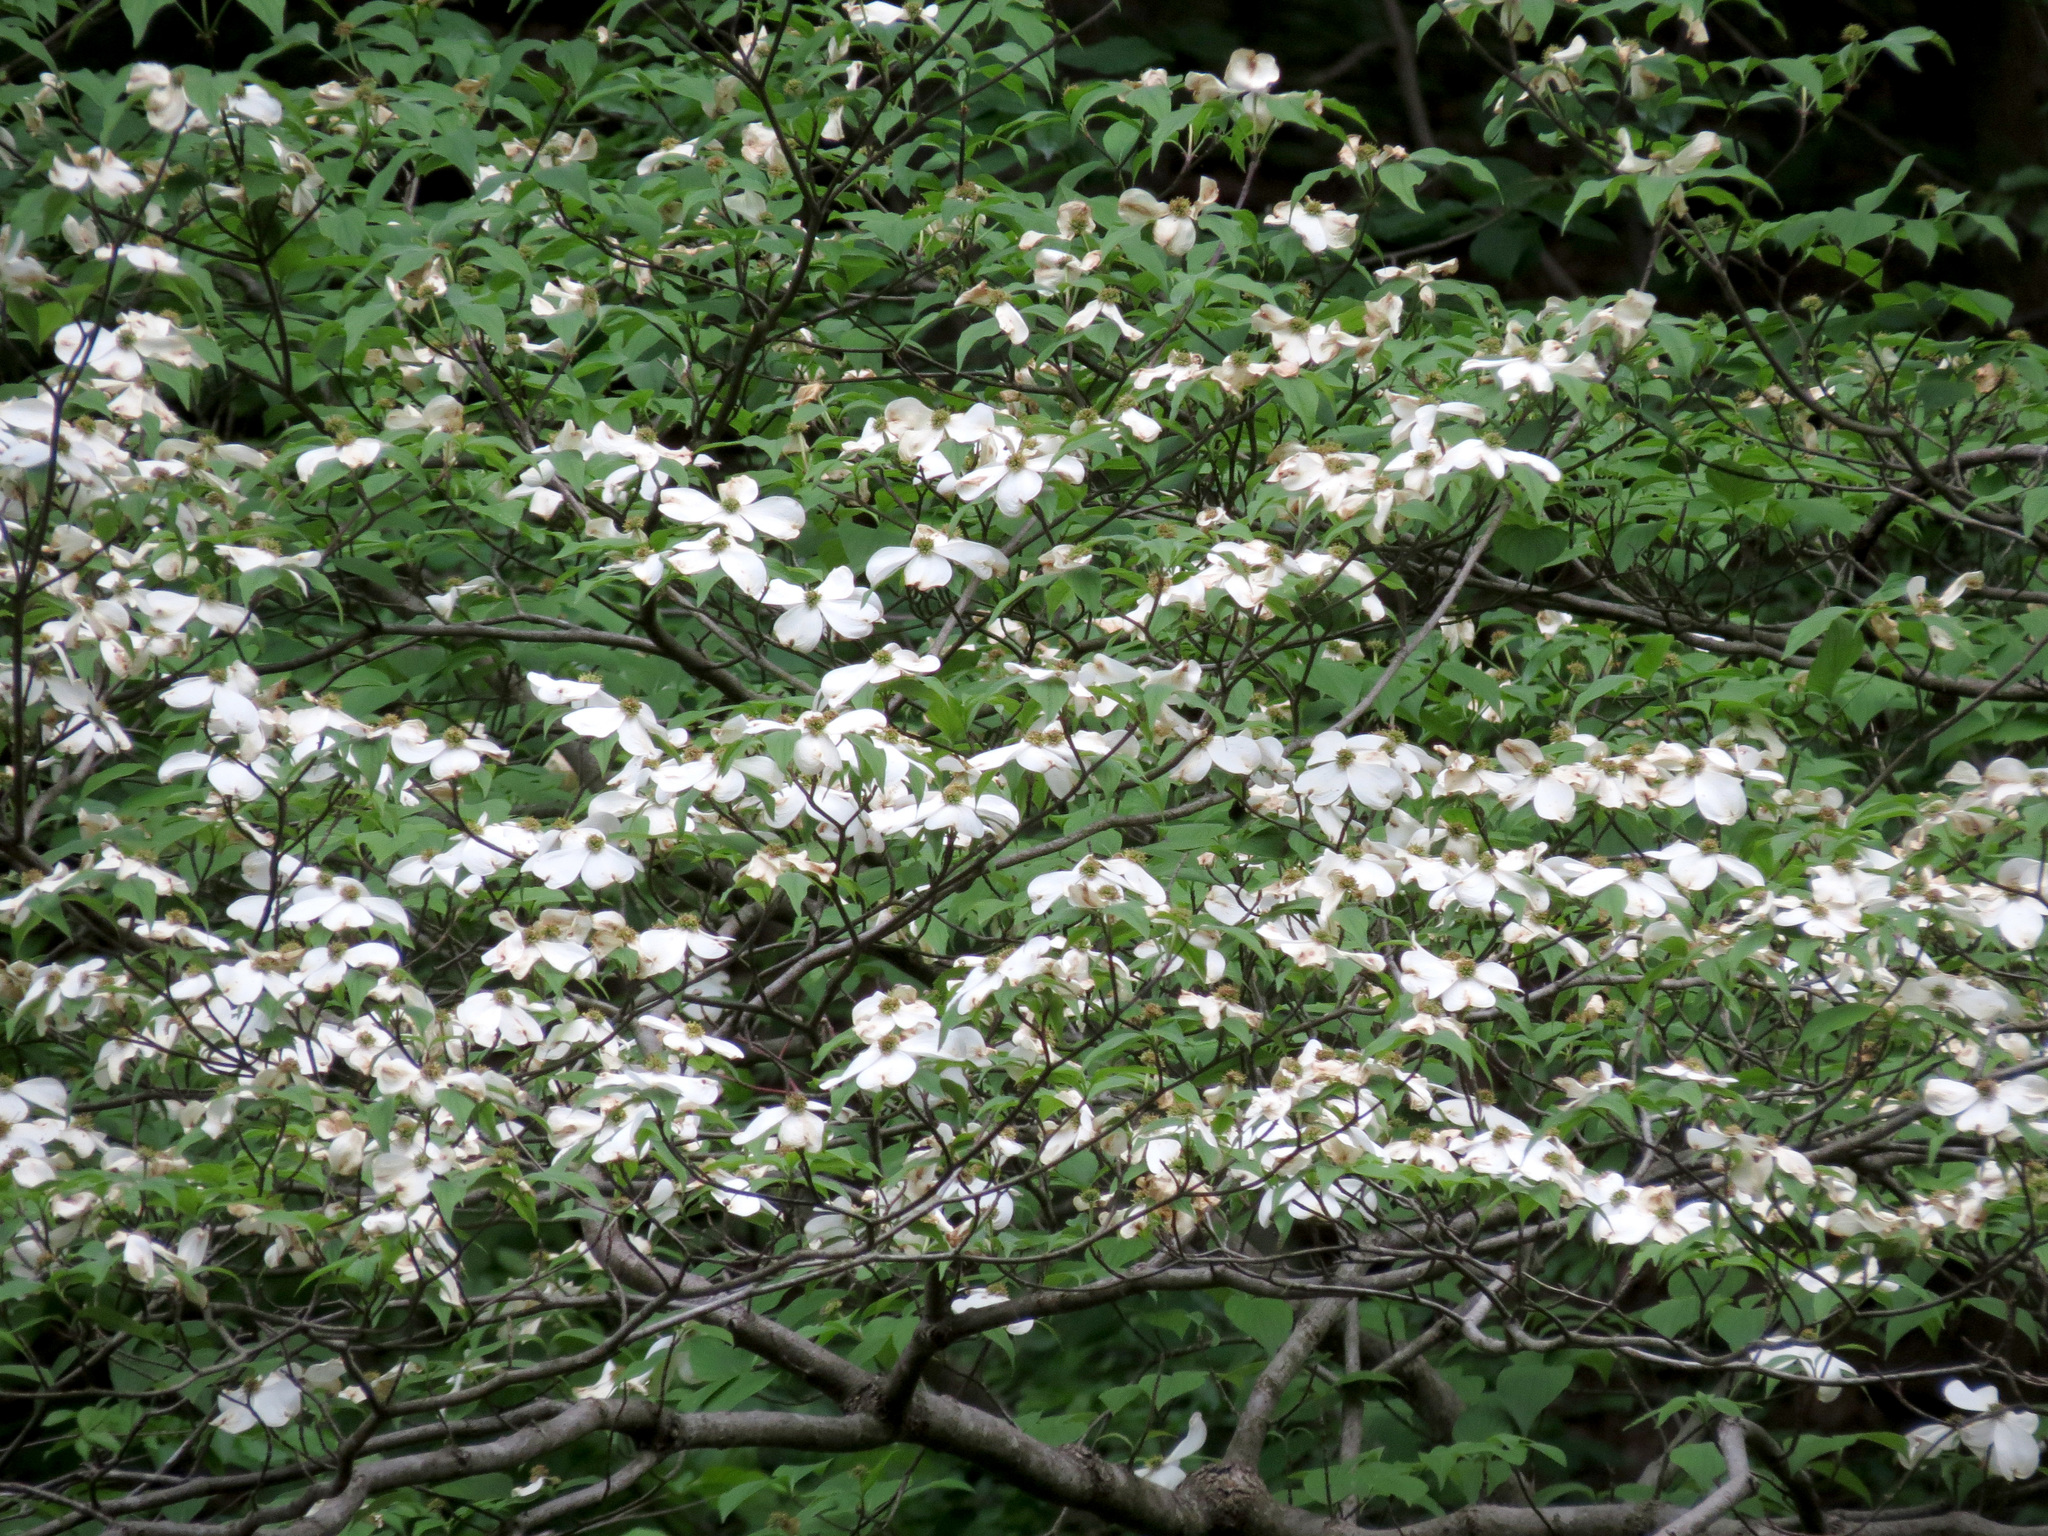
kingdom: Plantae
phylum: Tracheophyta
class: Magnoliopsida
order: Cornales
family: Cornaceae
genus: Cornus
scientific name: Cornus florida
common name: Flowering dogwood
